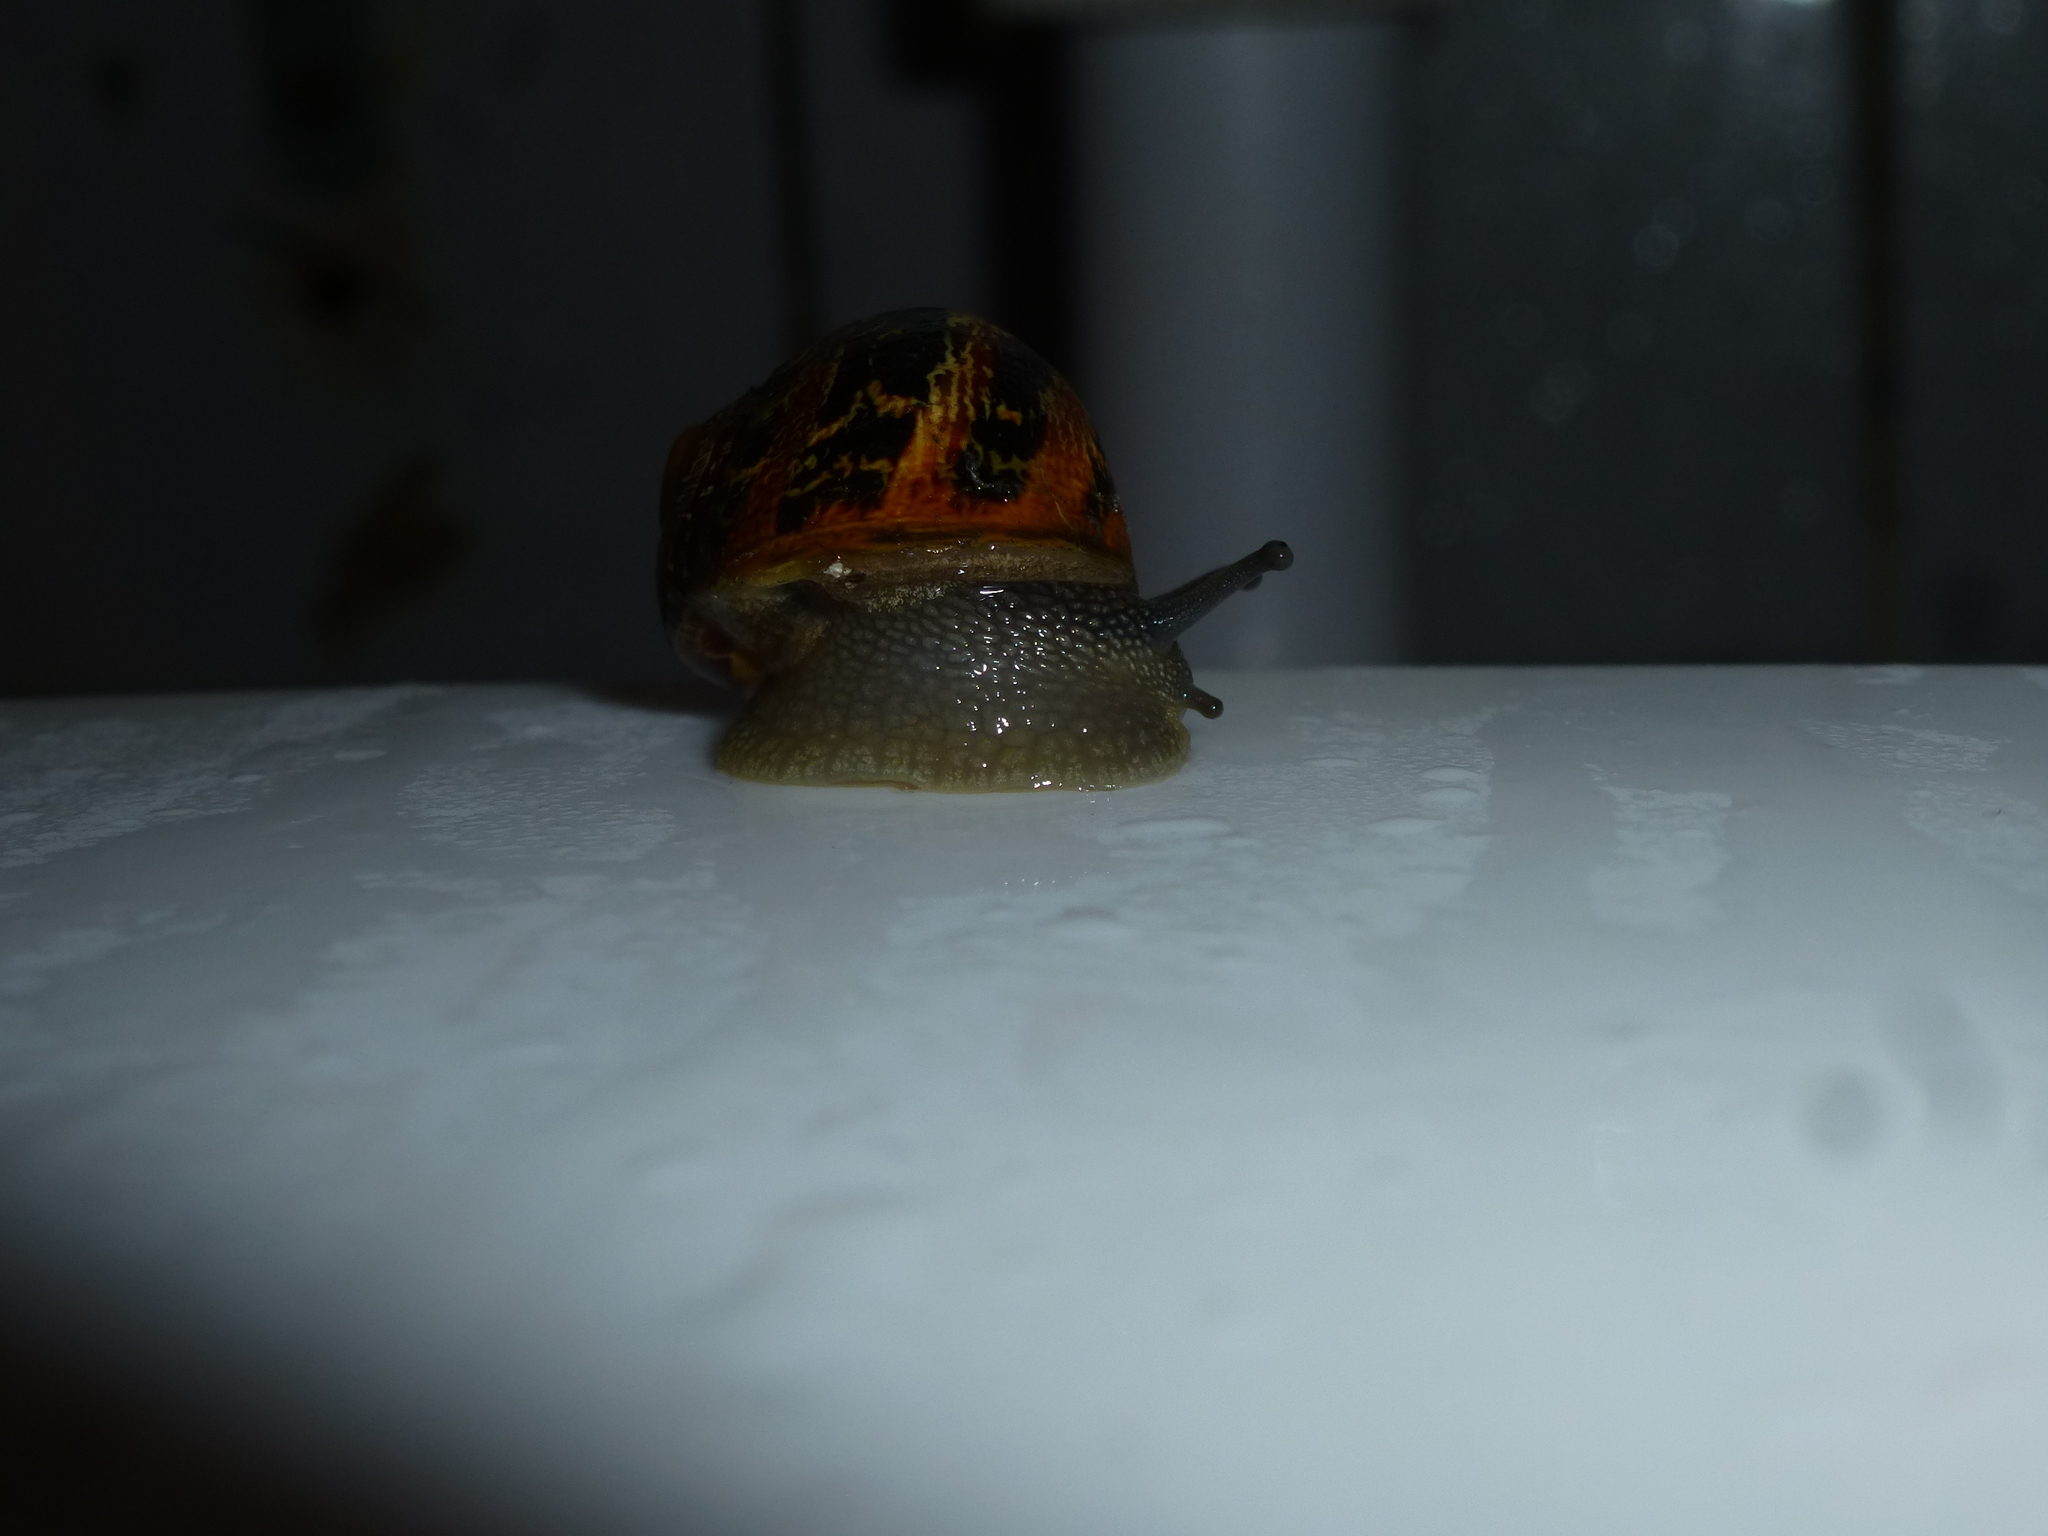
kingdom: Animalia
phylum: Mollusca
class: Gastropoda
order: Stylommatophora
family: Helicidae
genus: Cornu
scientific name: Cornu aspersum
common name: Brown garden snail
